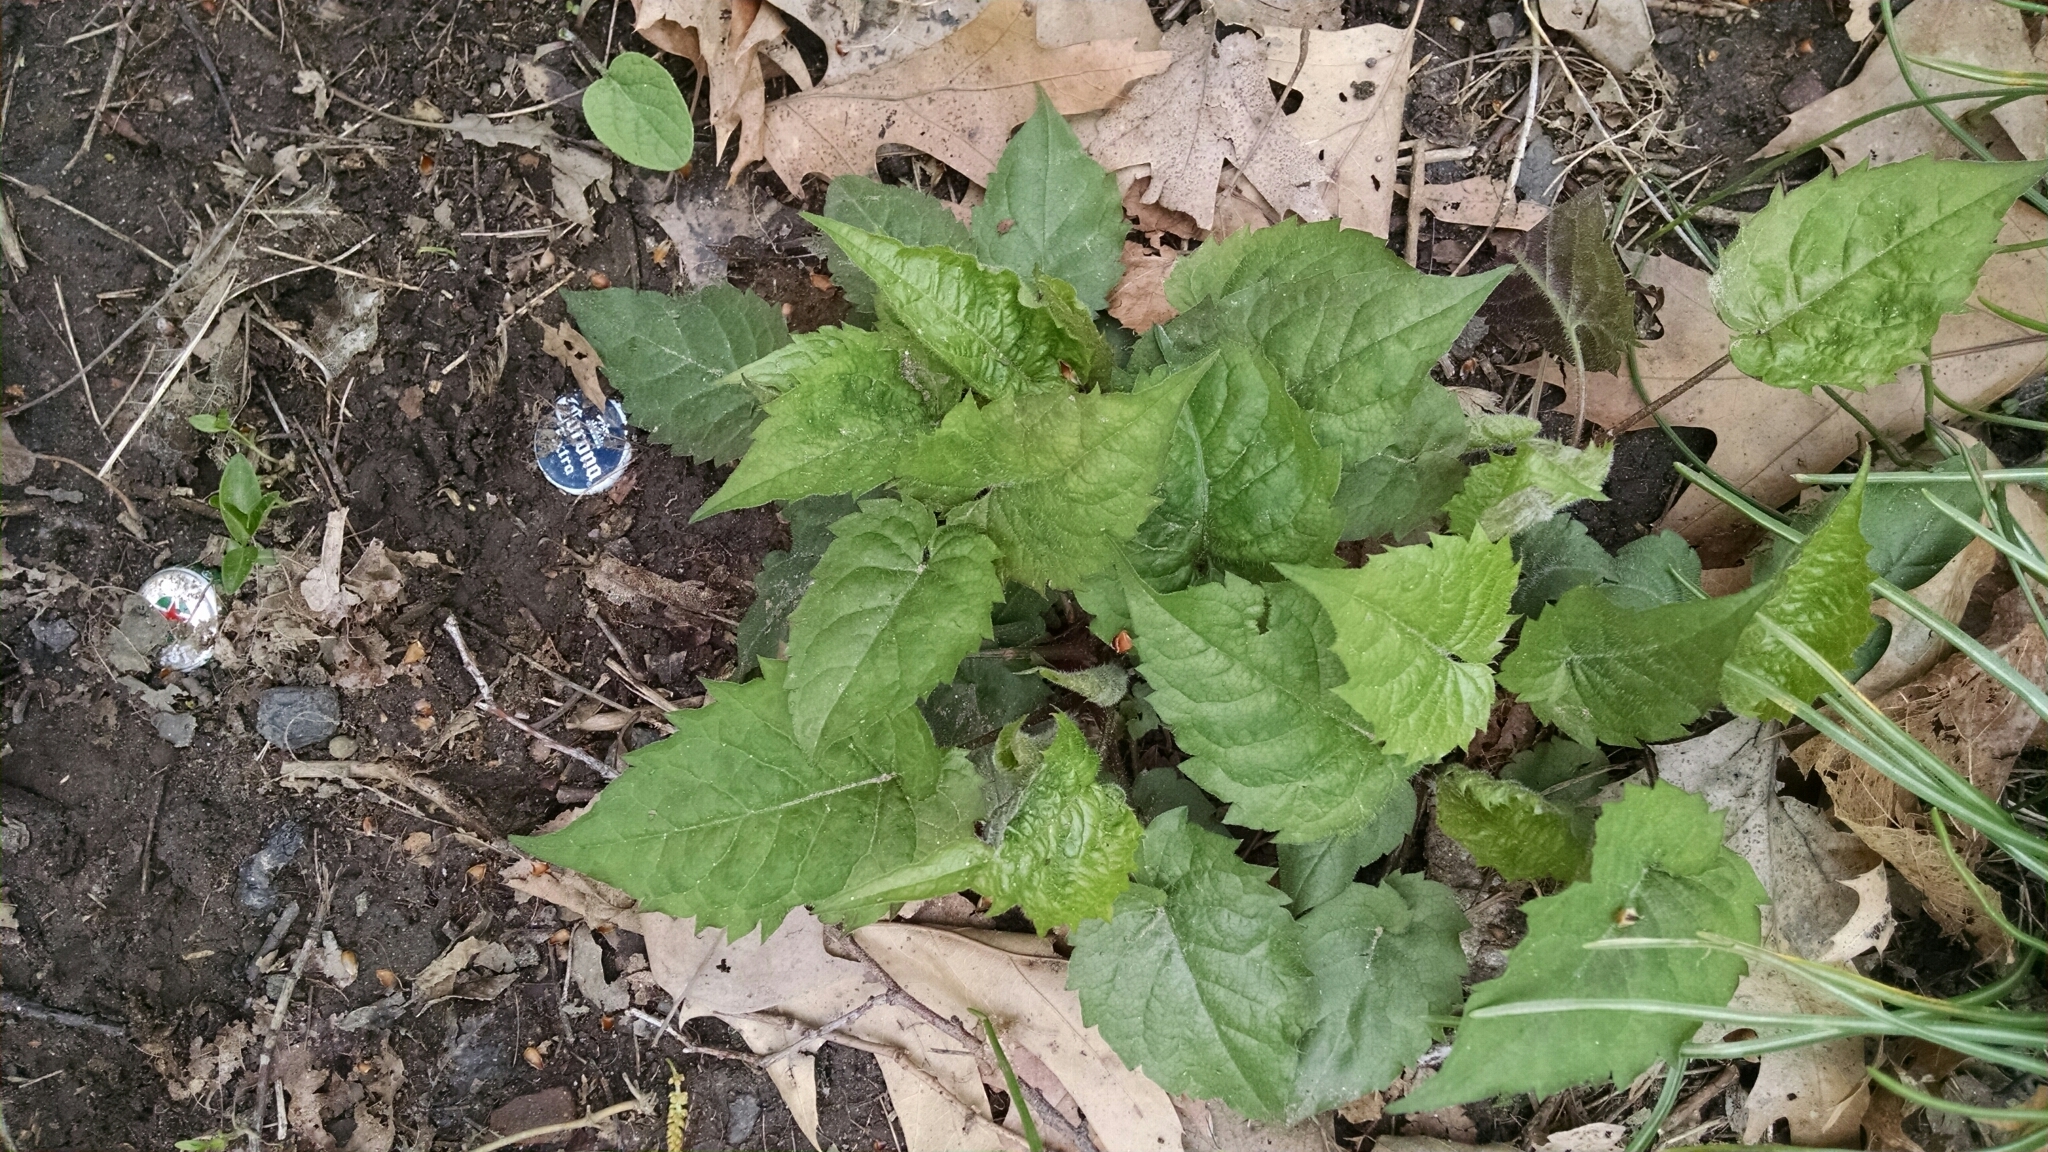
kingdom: Plantae
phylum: Tracheophyta
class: Magnoliopsida
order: Asterales
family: Asteraceae
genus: Eurybia
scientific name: Eurybia divaricata
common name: White wood aster
